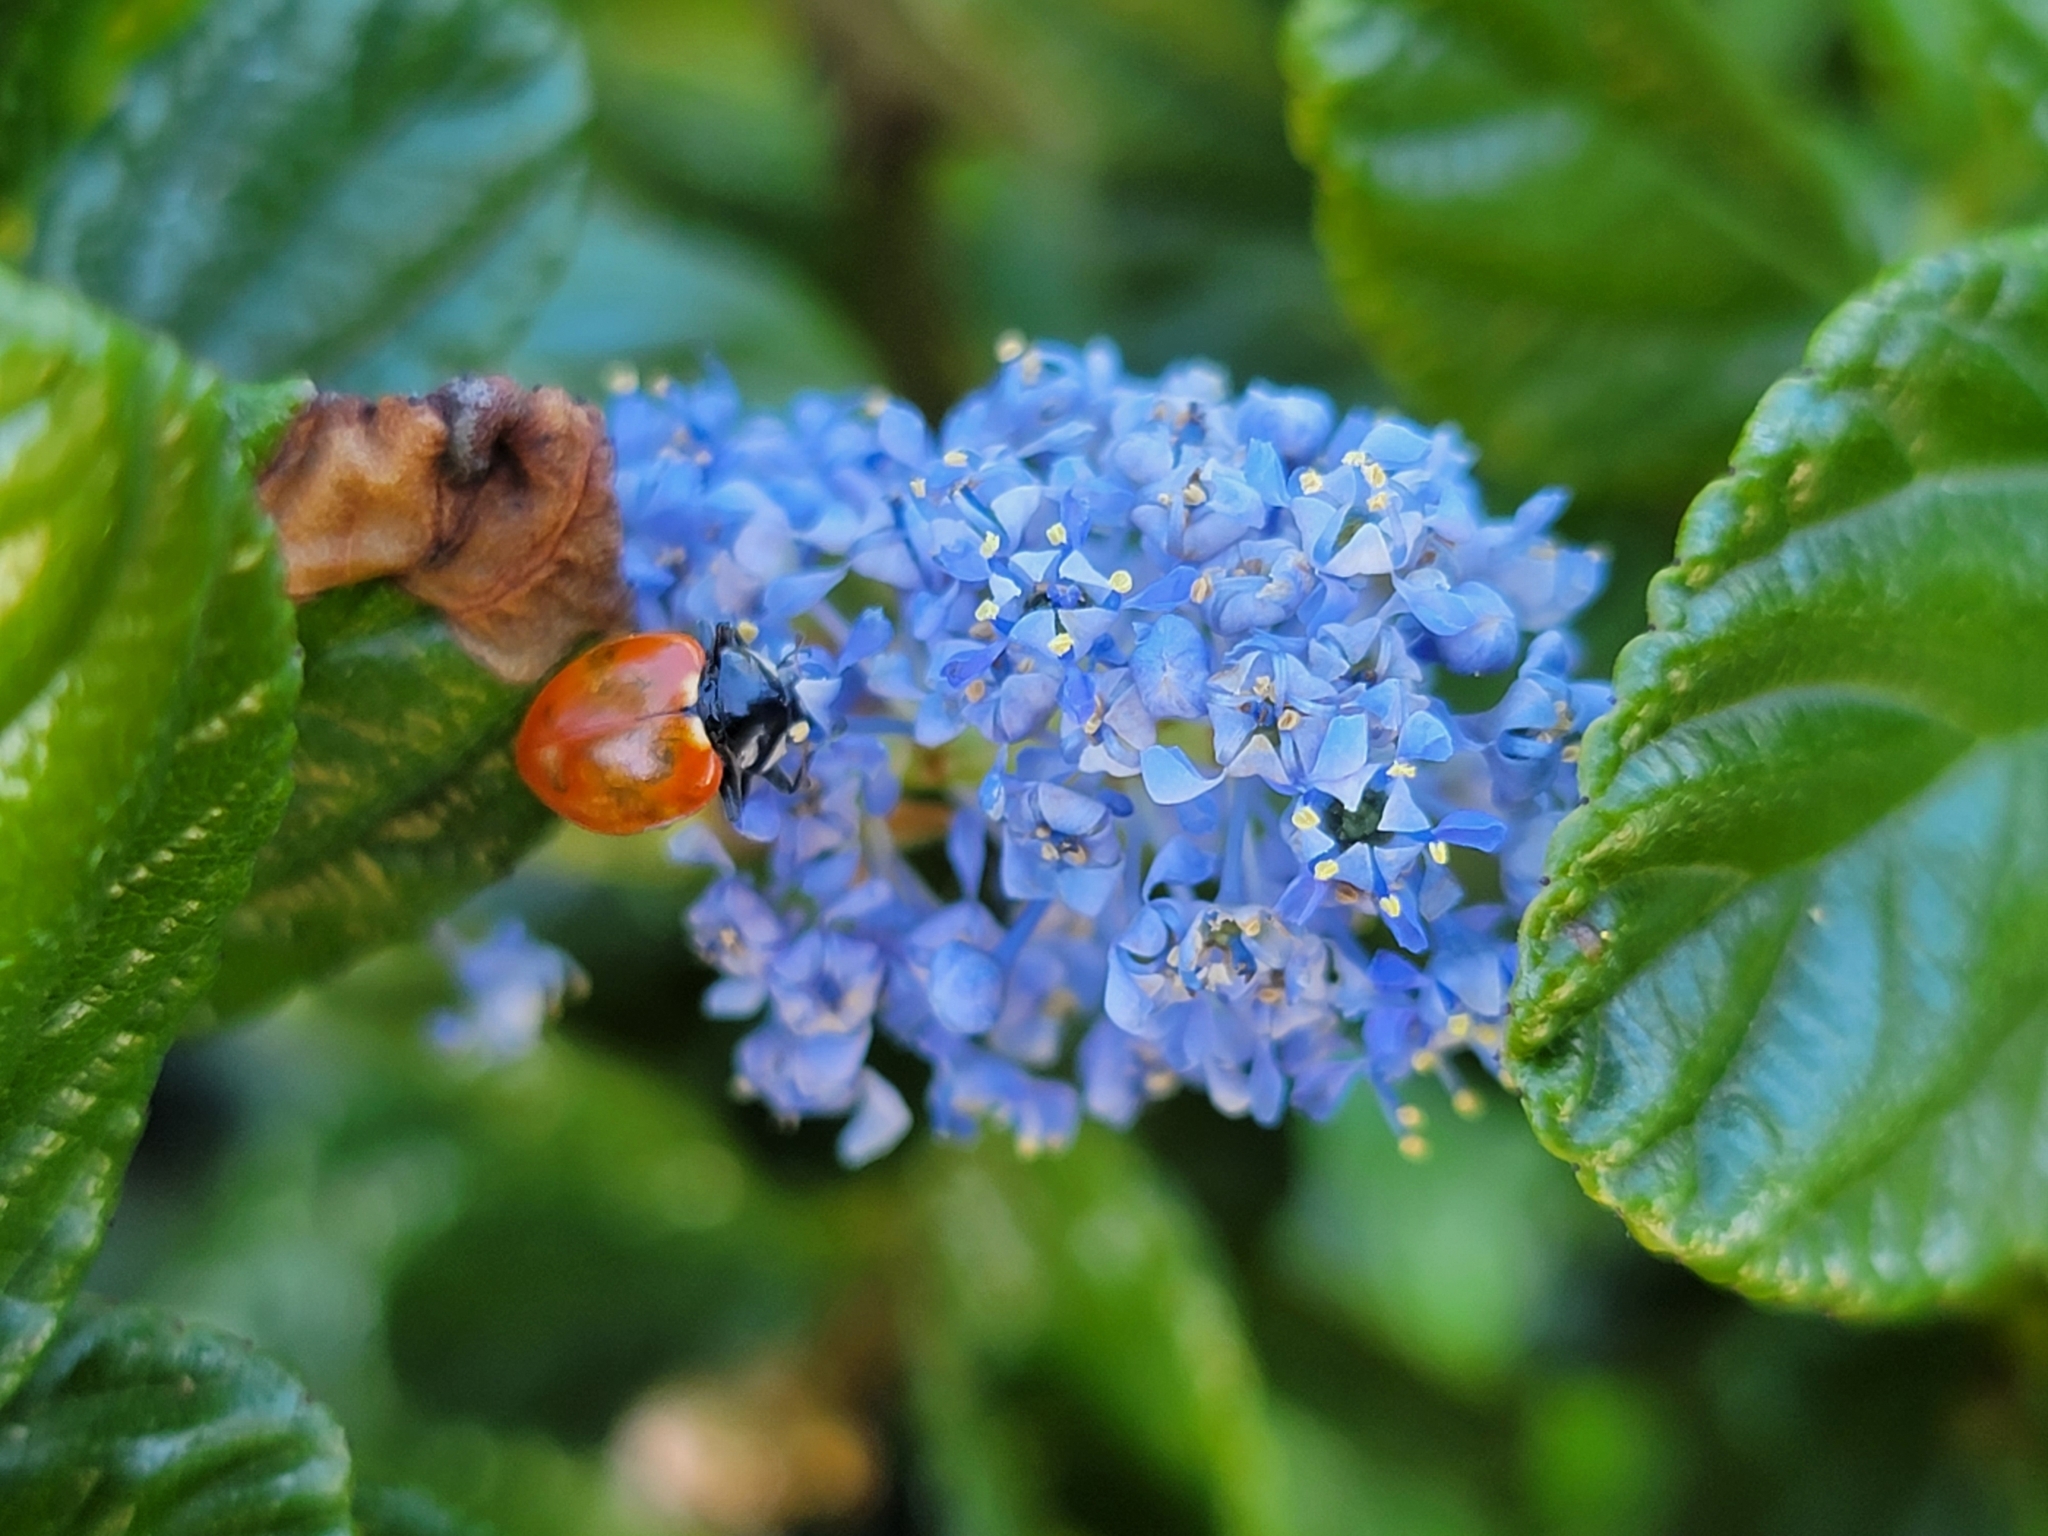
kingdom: Animalia
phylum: Arthropoda
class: Insecta
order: Coleoptera
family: Coccinellidae
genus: Hippodamia
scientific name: Hippodamia quinquesignata
